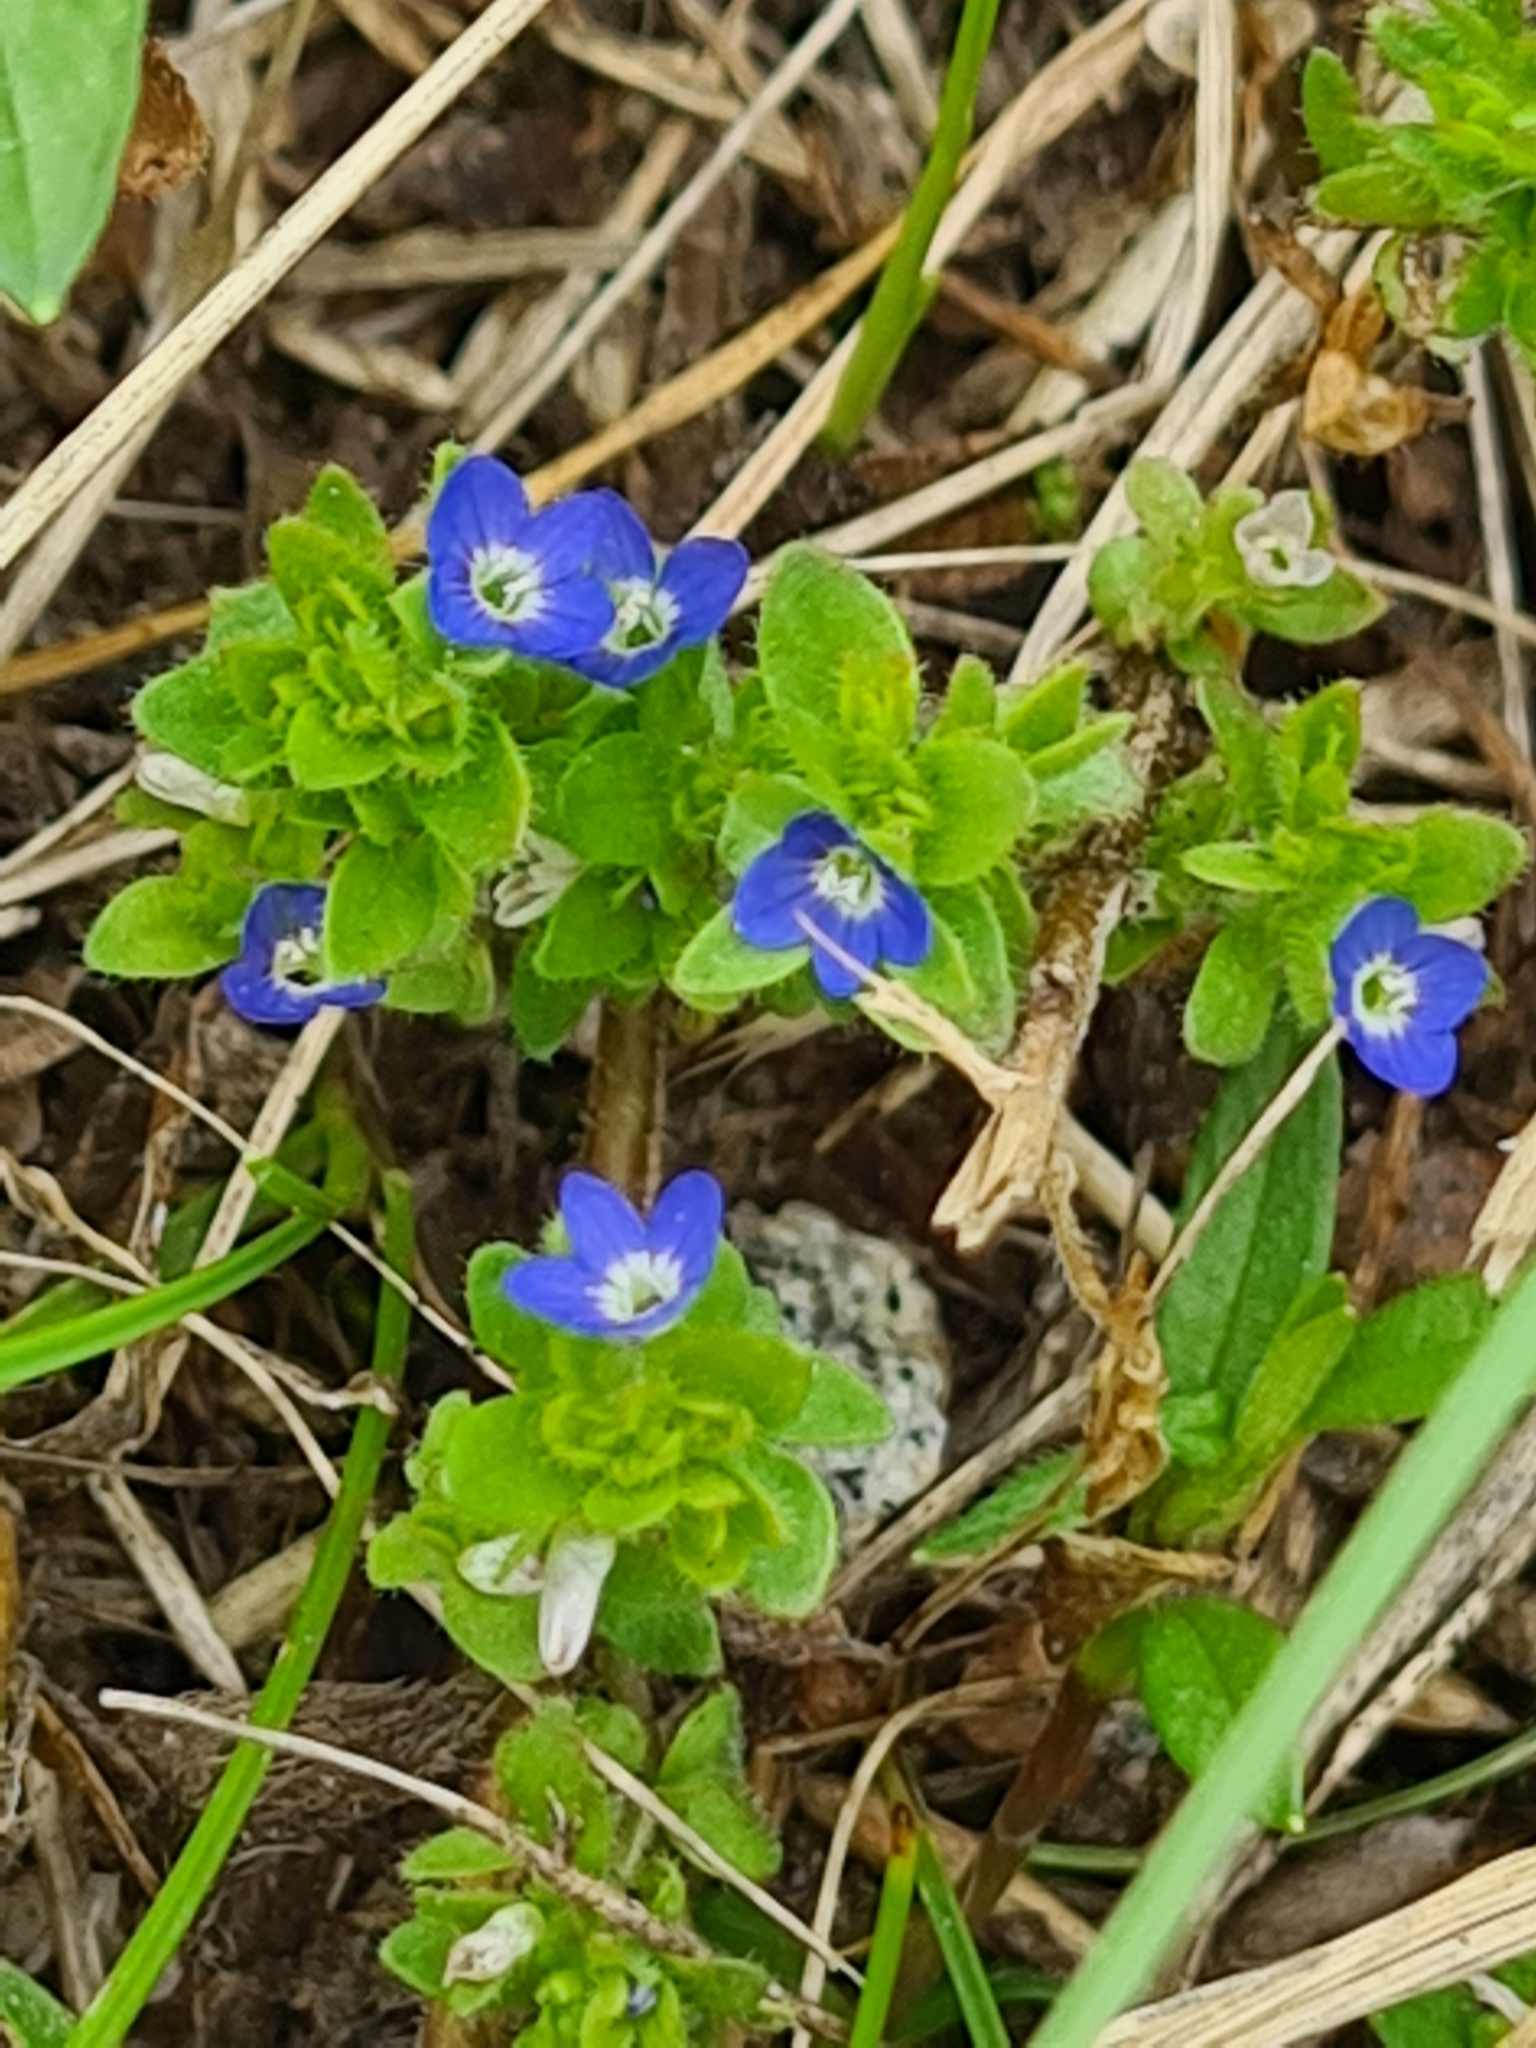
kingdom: Plantae
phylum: Tracheophyta
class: Magnoliopsida
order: Lamiales
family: Plantaginaceae
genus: Veronica
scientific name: Veronica arvensis
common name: Corn speedwell
